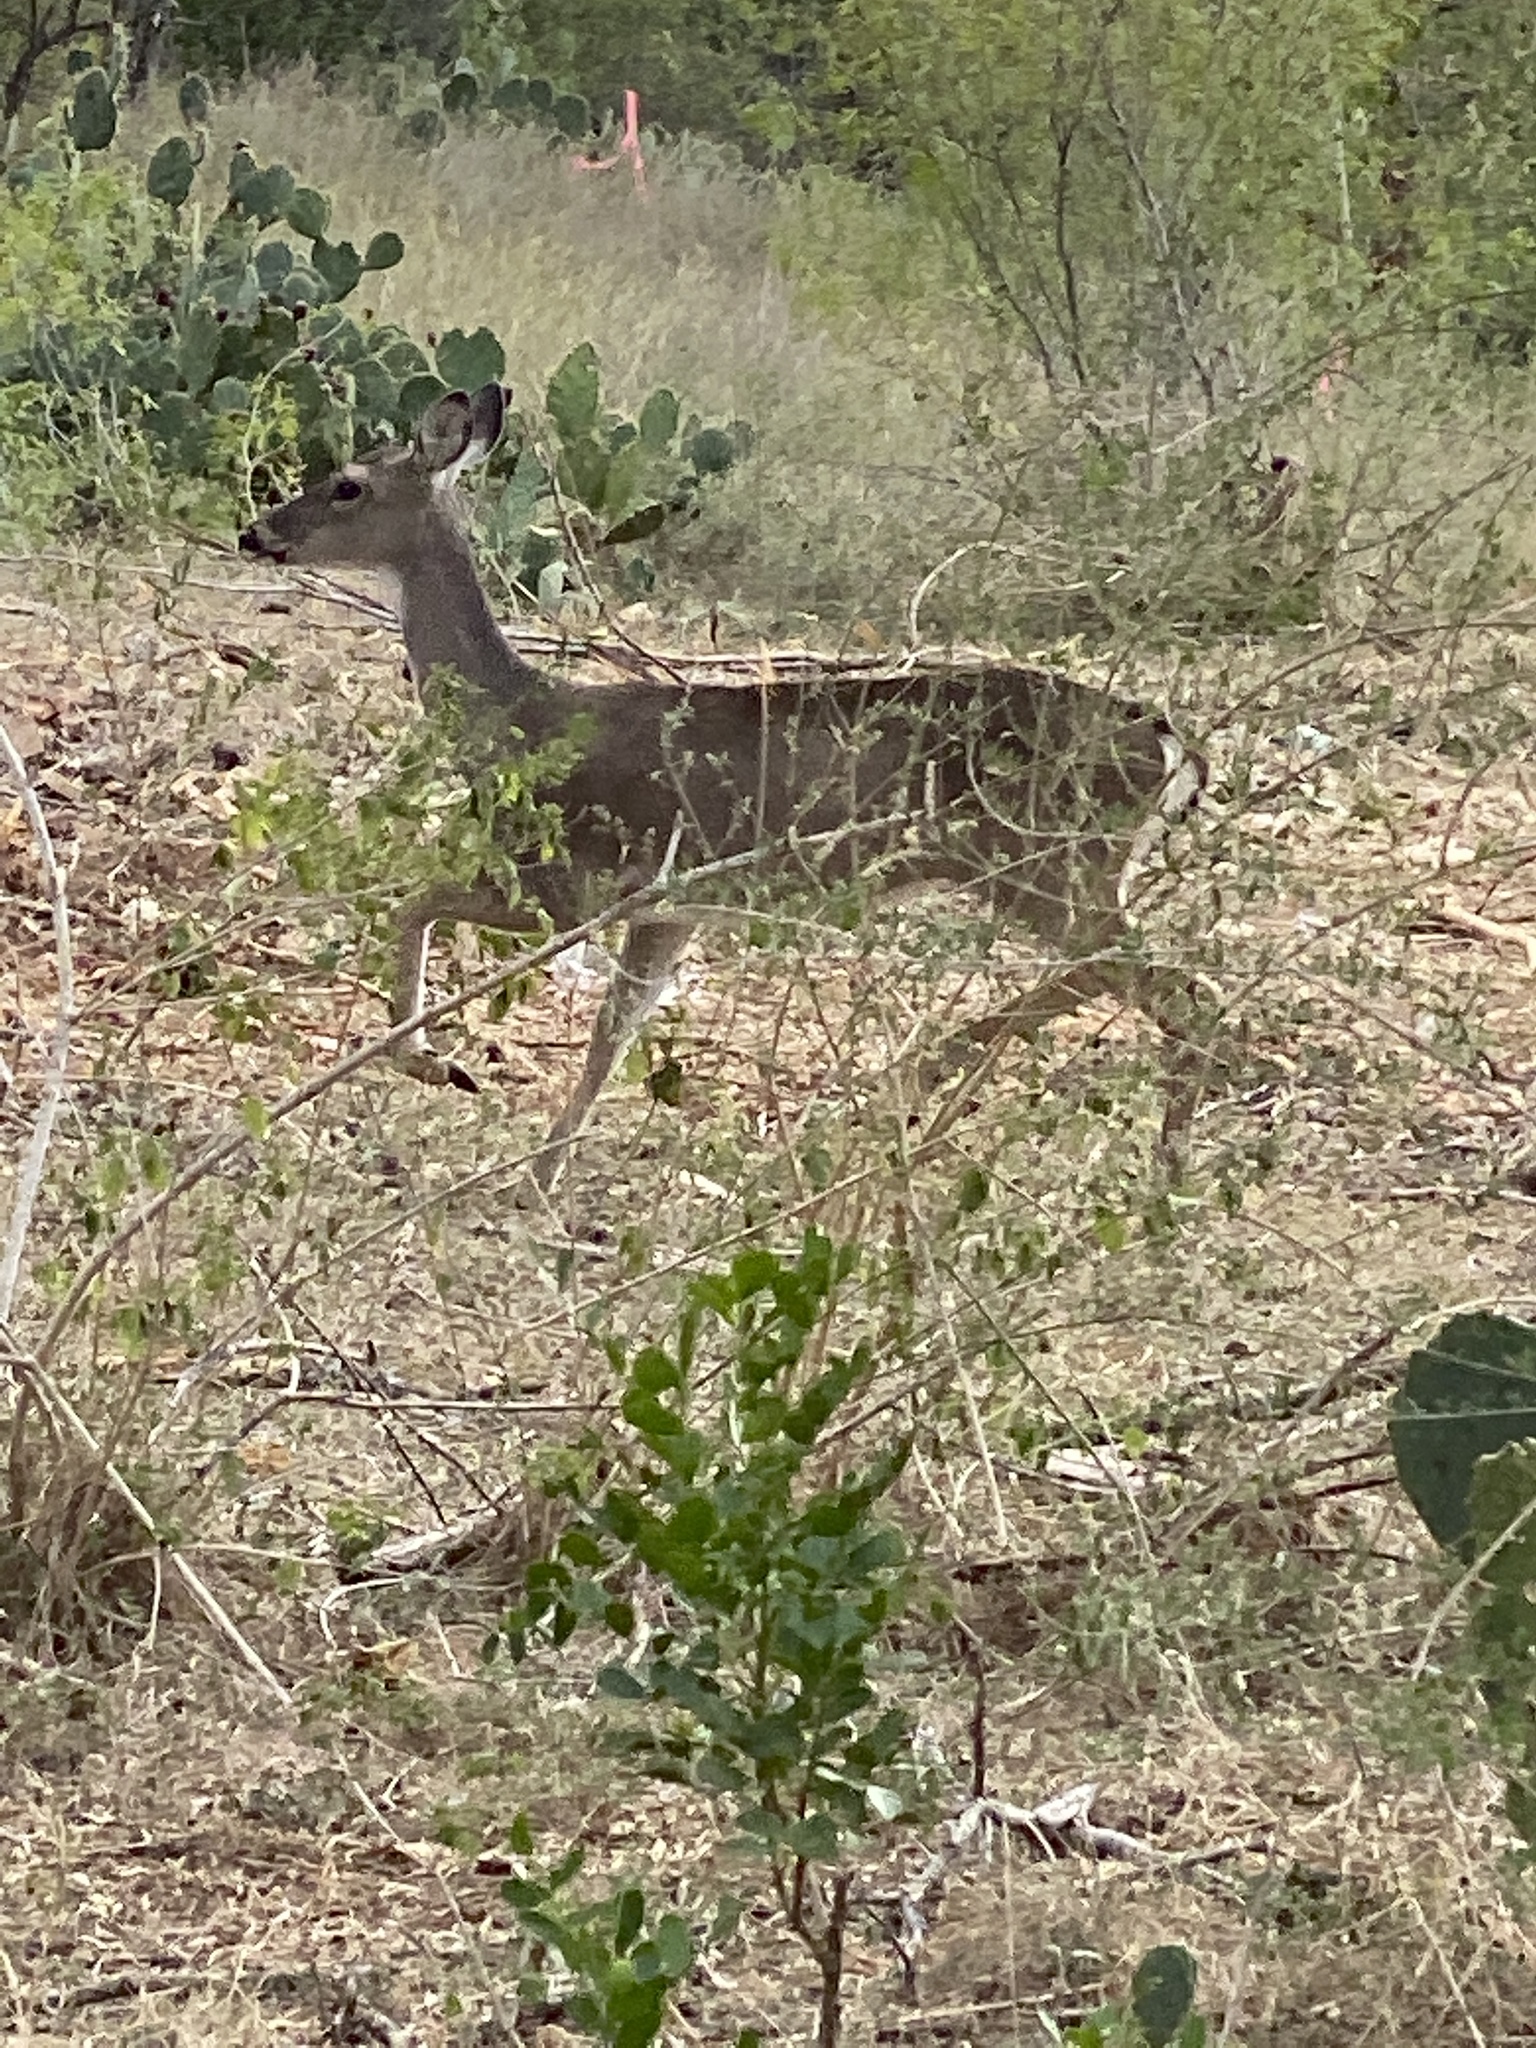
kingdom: Animalia
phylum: Chordata
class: Mammalia
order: Artiodactyla
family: Cervidae
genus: Odocoileus
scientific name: Odocoileus virginianus
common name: White-tailed deer
